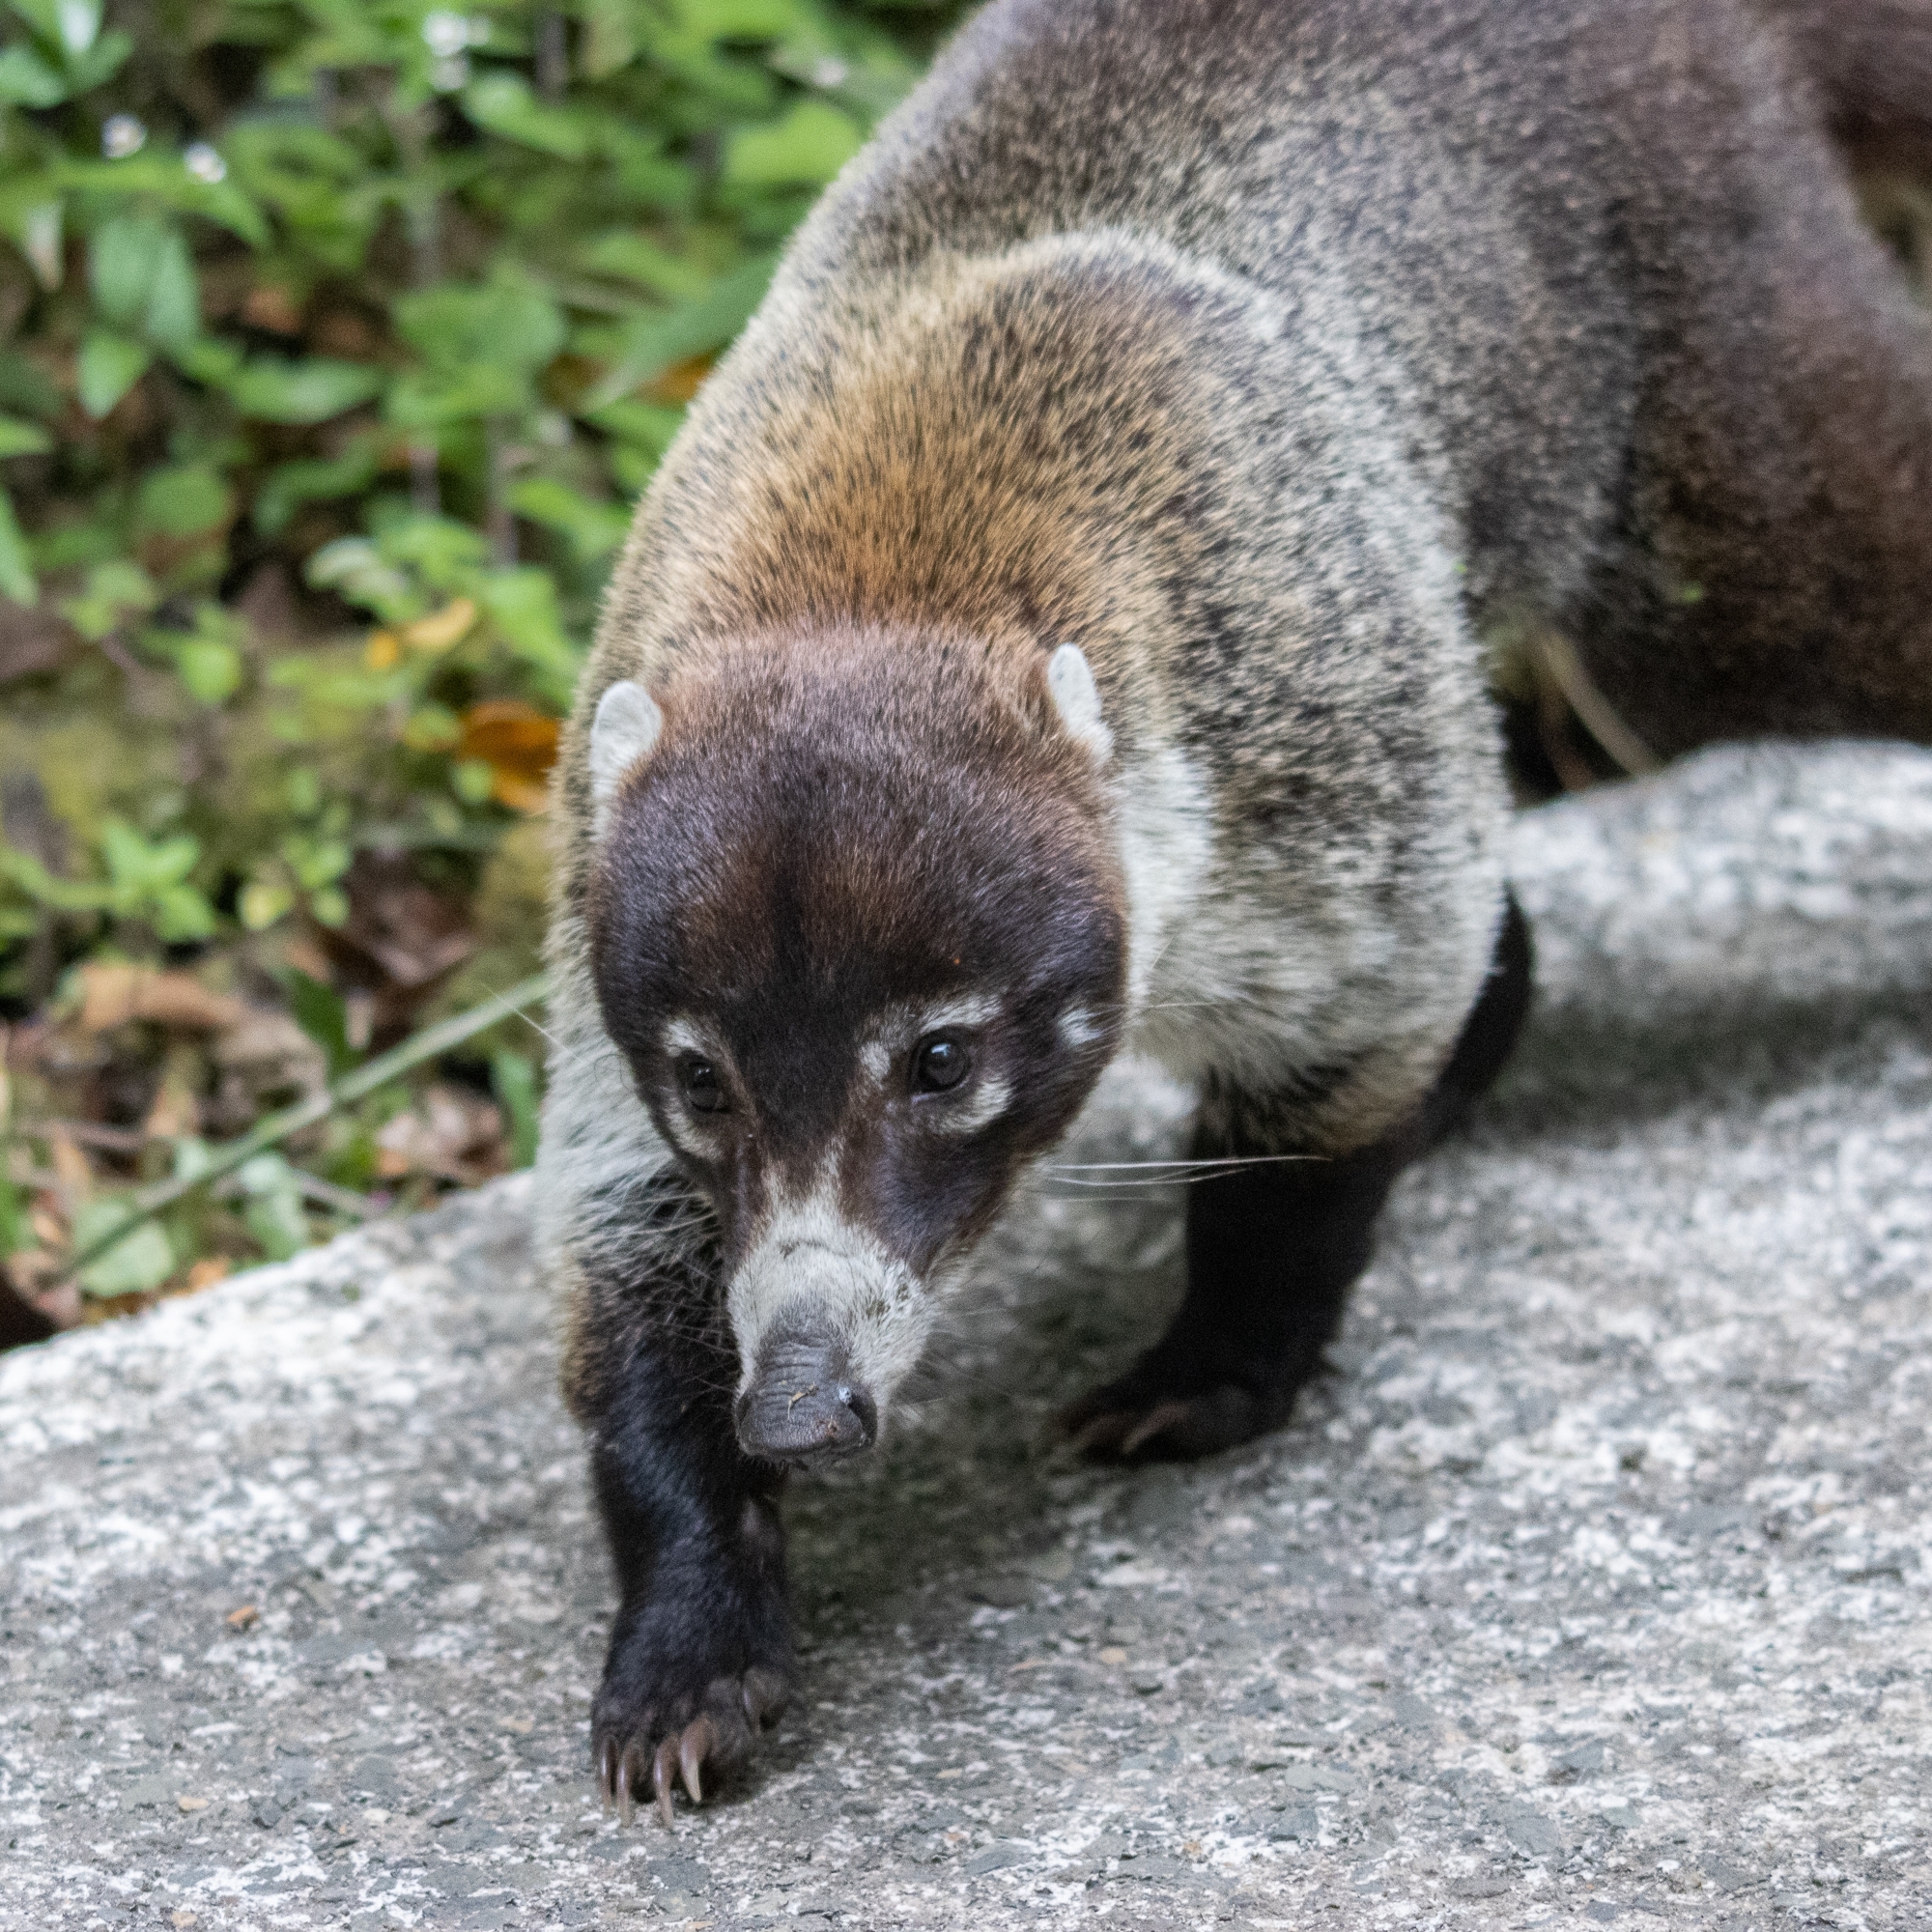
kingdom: Animalia
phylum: Chordata
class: Mammalia
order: Carnivora
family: Procyonidae
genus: Nasua
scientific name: Nasua narica
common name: White-nosed coati
